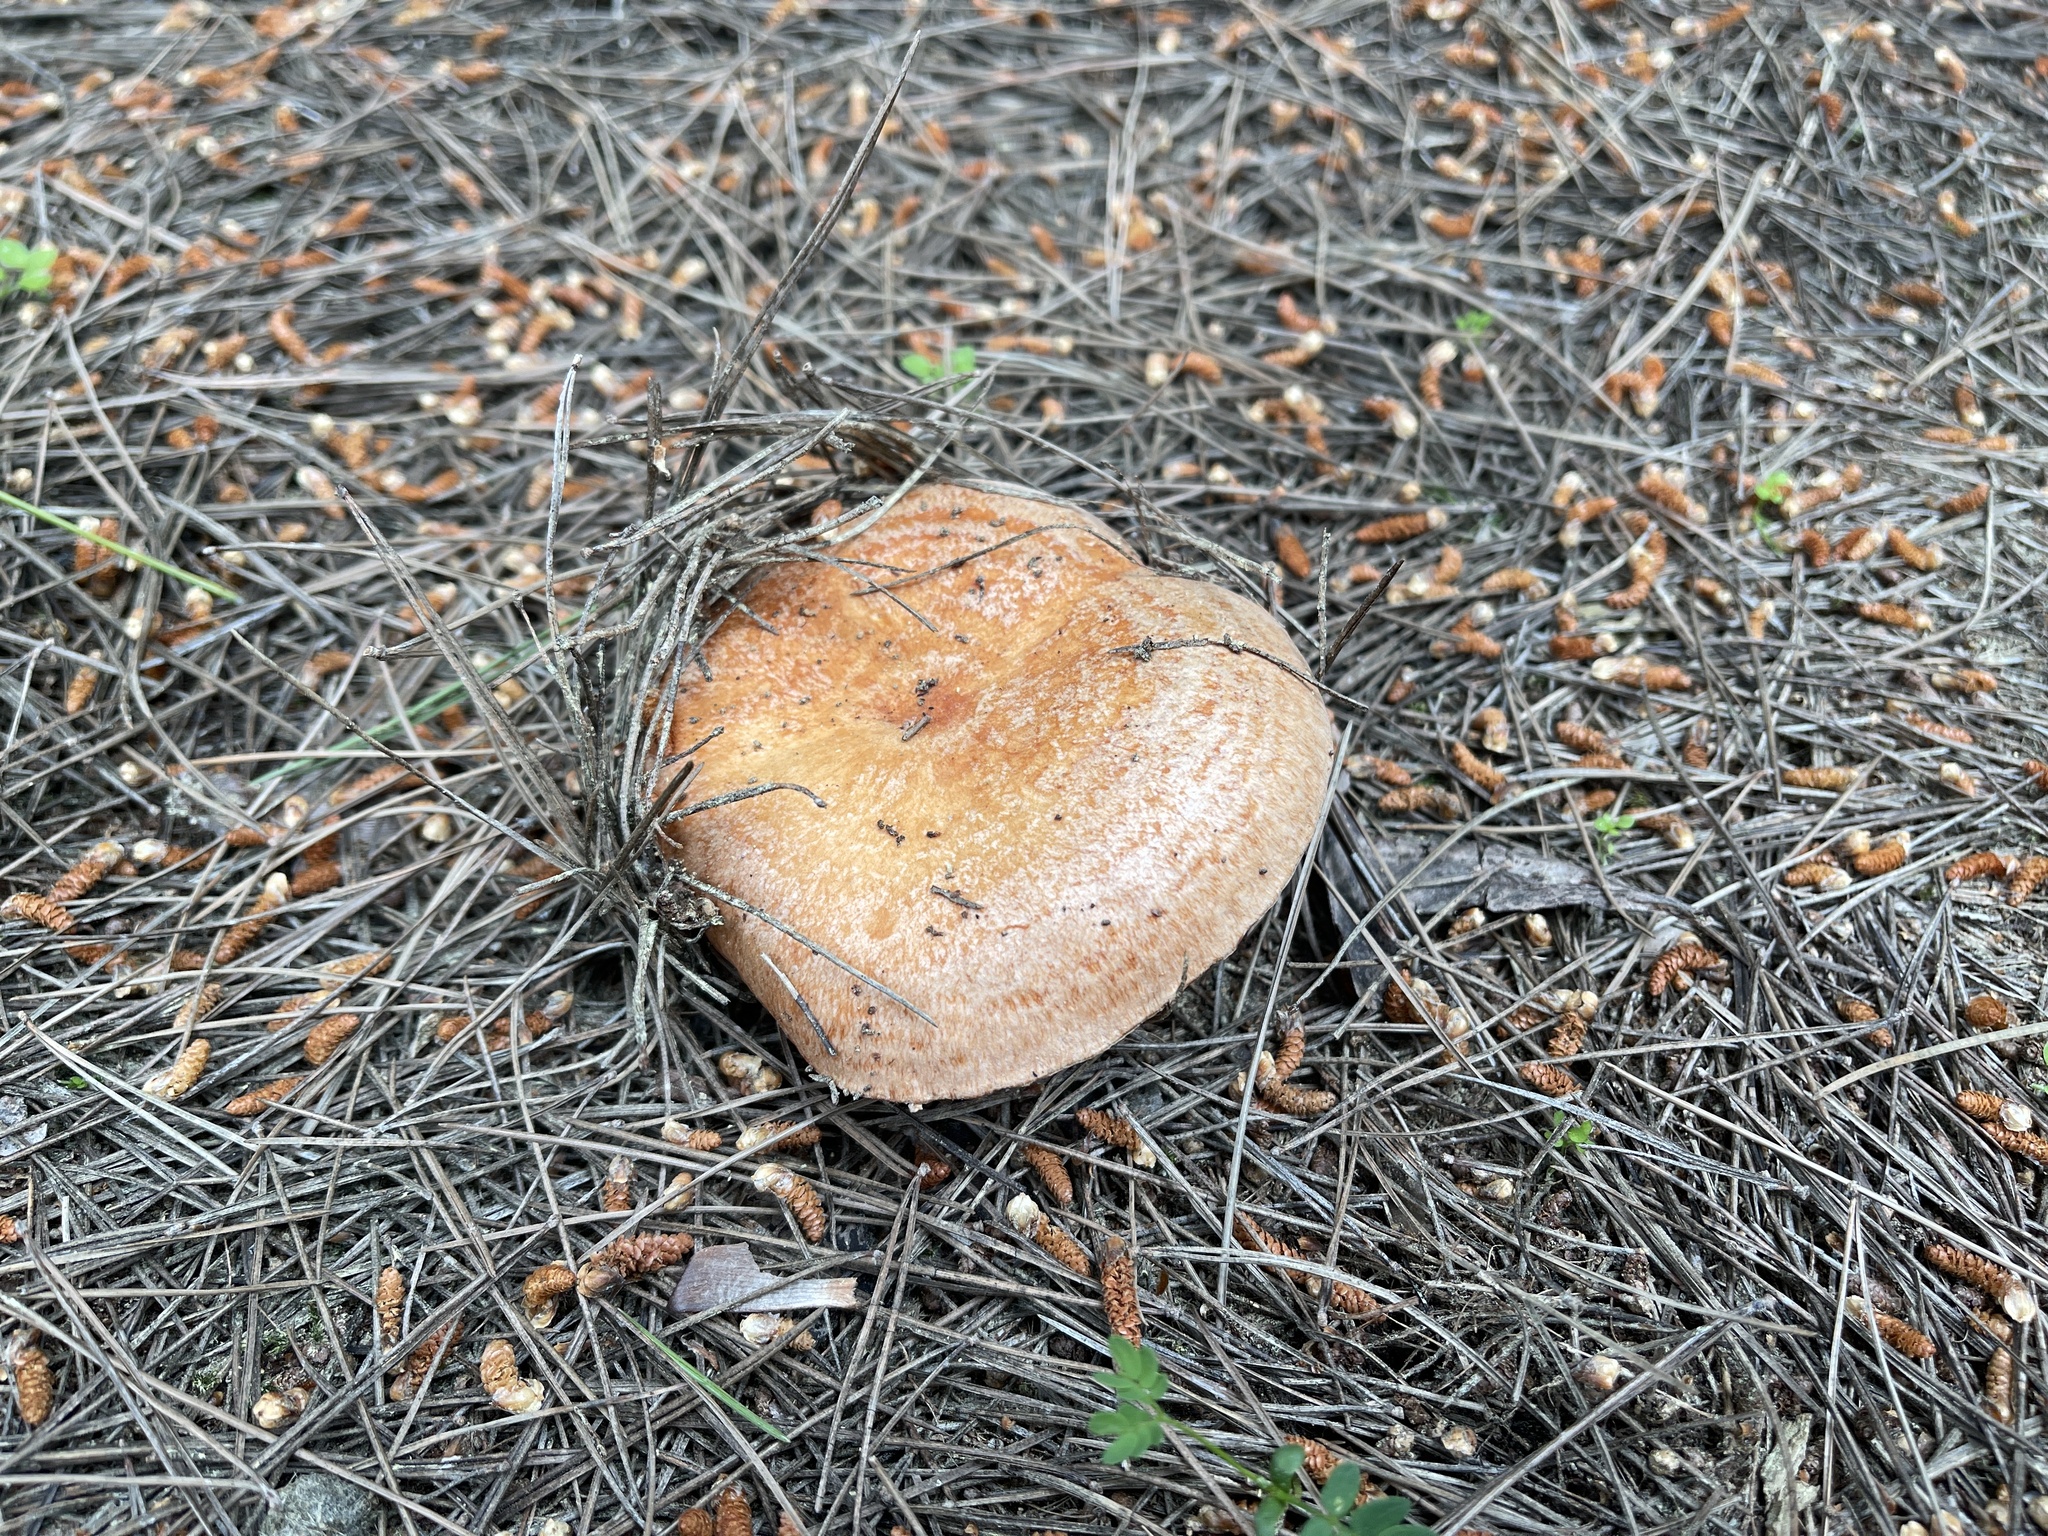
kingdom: Fungi
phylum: Basidiomycota
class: Agaricomycetes
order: Russulales
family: Russulaceae
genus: Lactarius
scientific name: Lactarius deliciosus
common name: Saffron milk-cap
